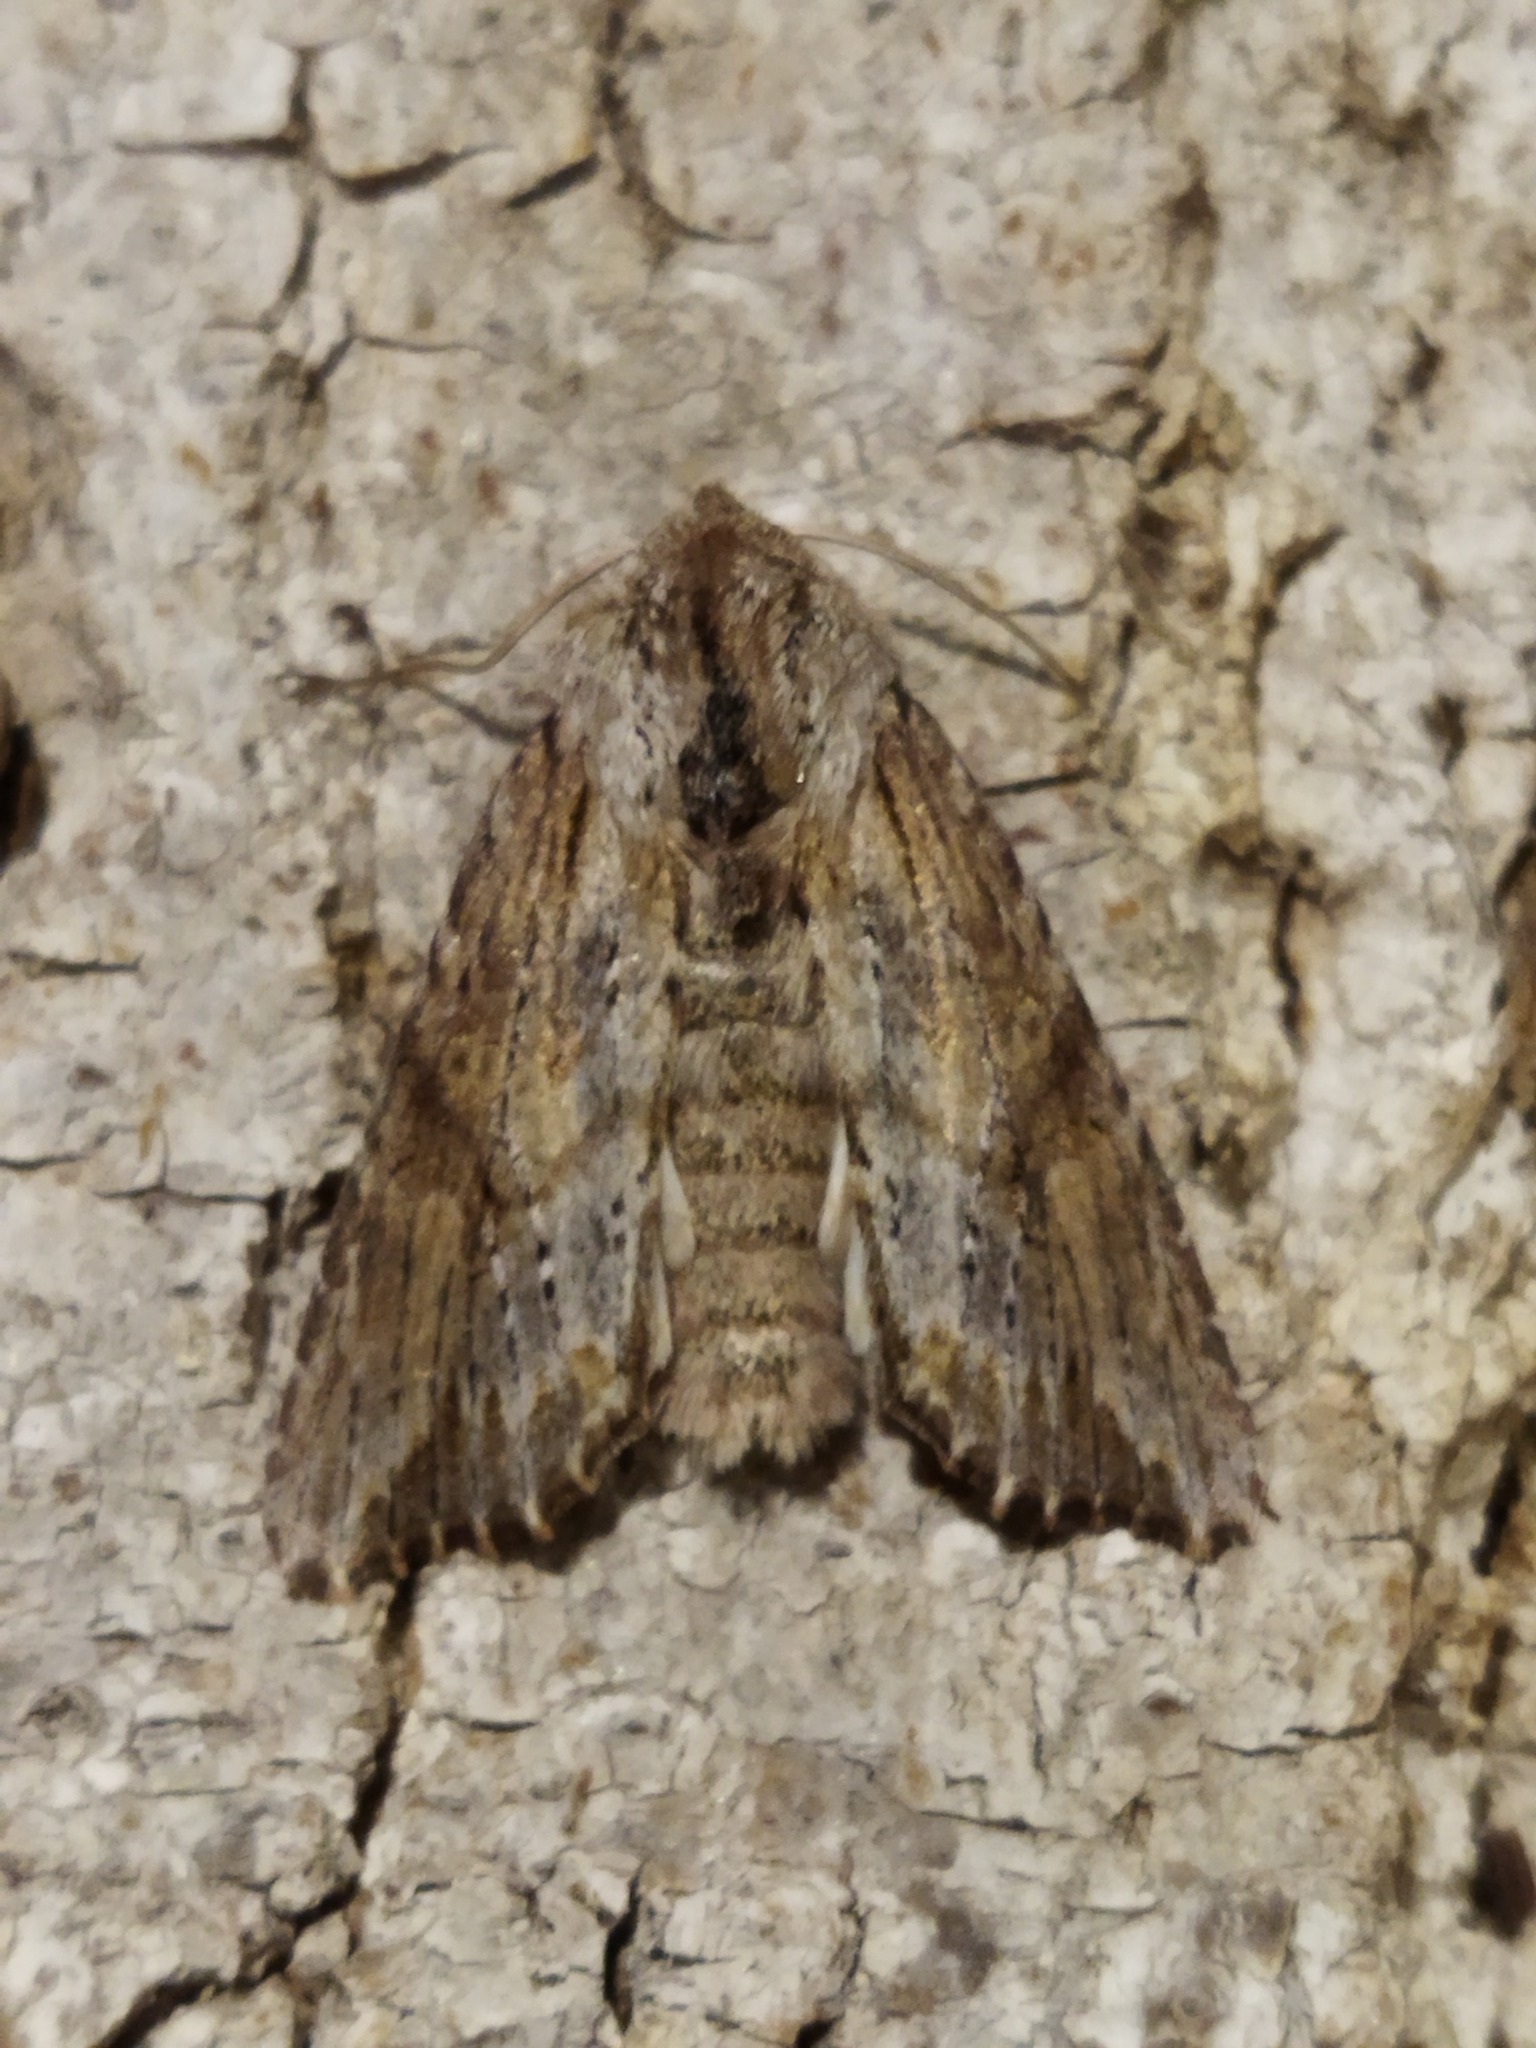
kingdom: Animalia
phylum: Arthropoda
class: Insecta
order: Lepidoptera
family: Noctuidae
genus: Egira
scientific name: Egira
